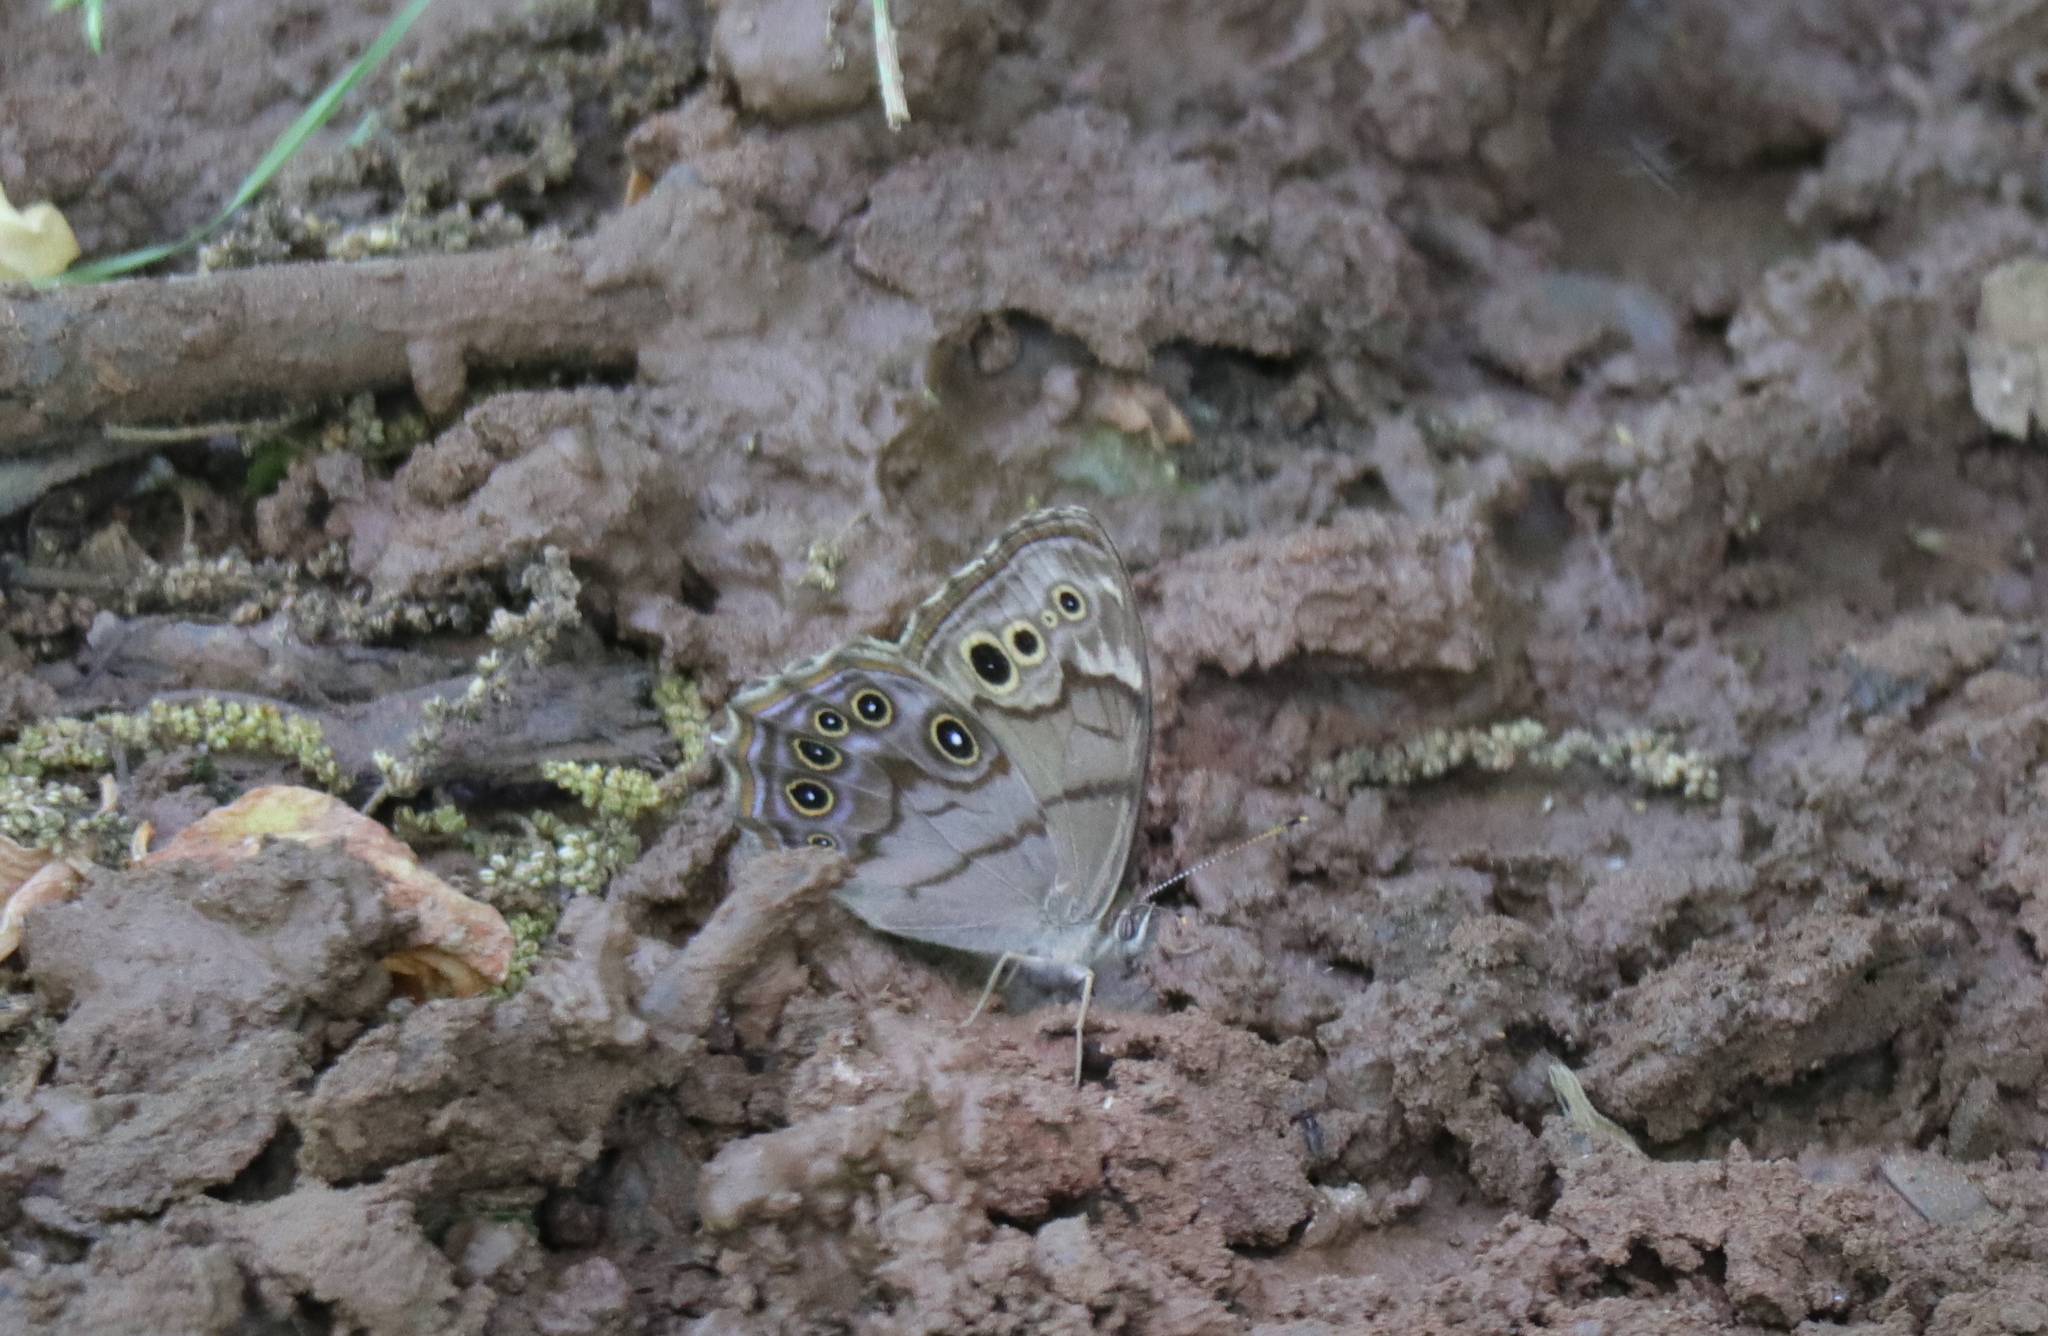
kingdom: Animalia
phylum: Arthropoda
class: Insecta
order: Lepidoptera
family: Nymphalidae
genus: Lethe
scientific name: Lethe anthedon
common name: Northern pearly-eye
